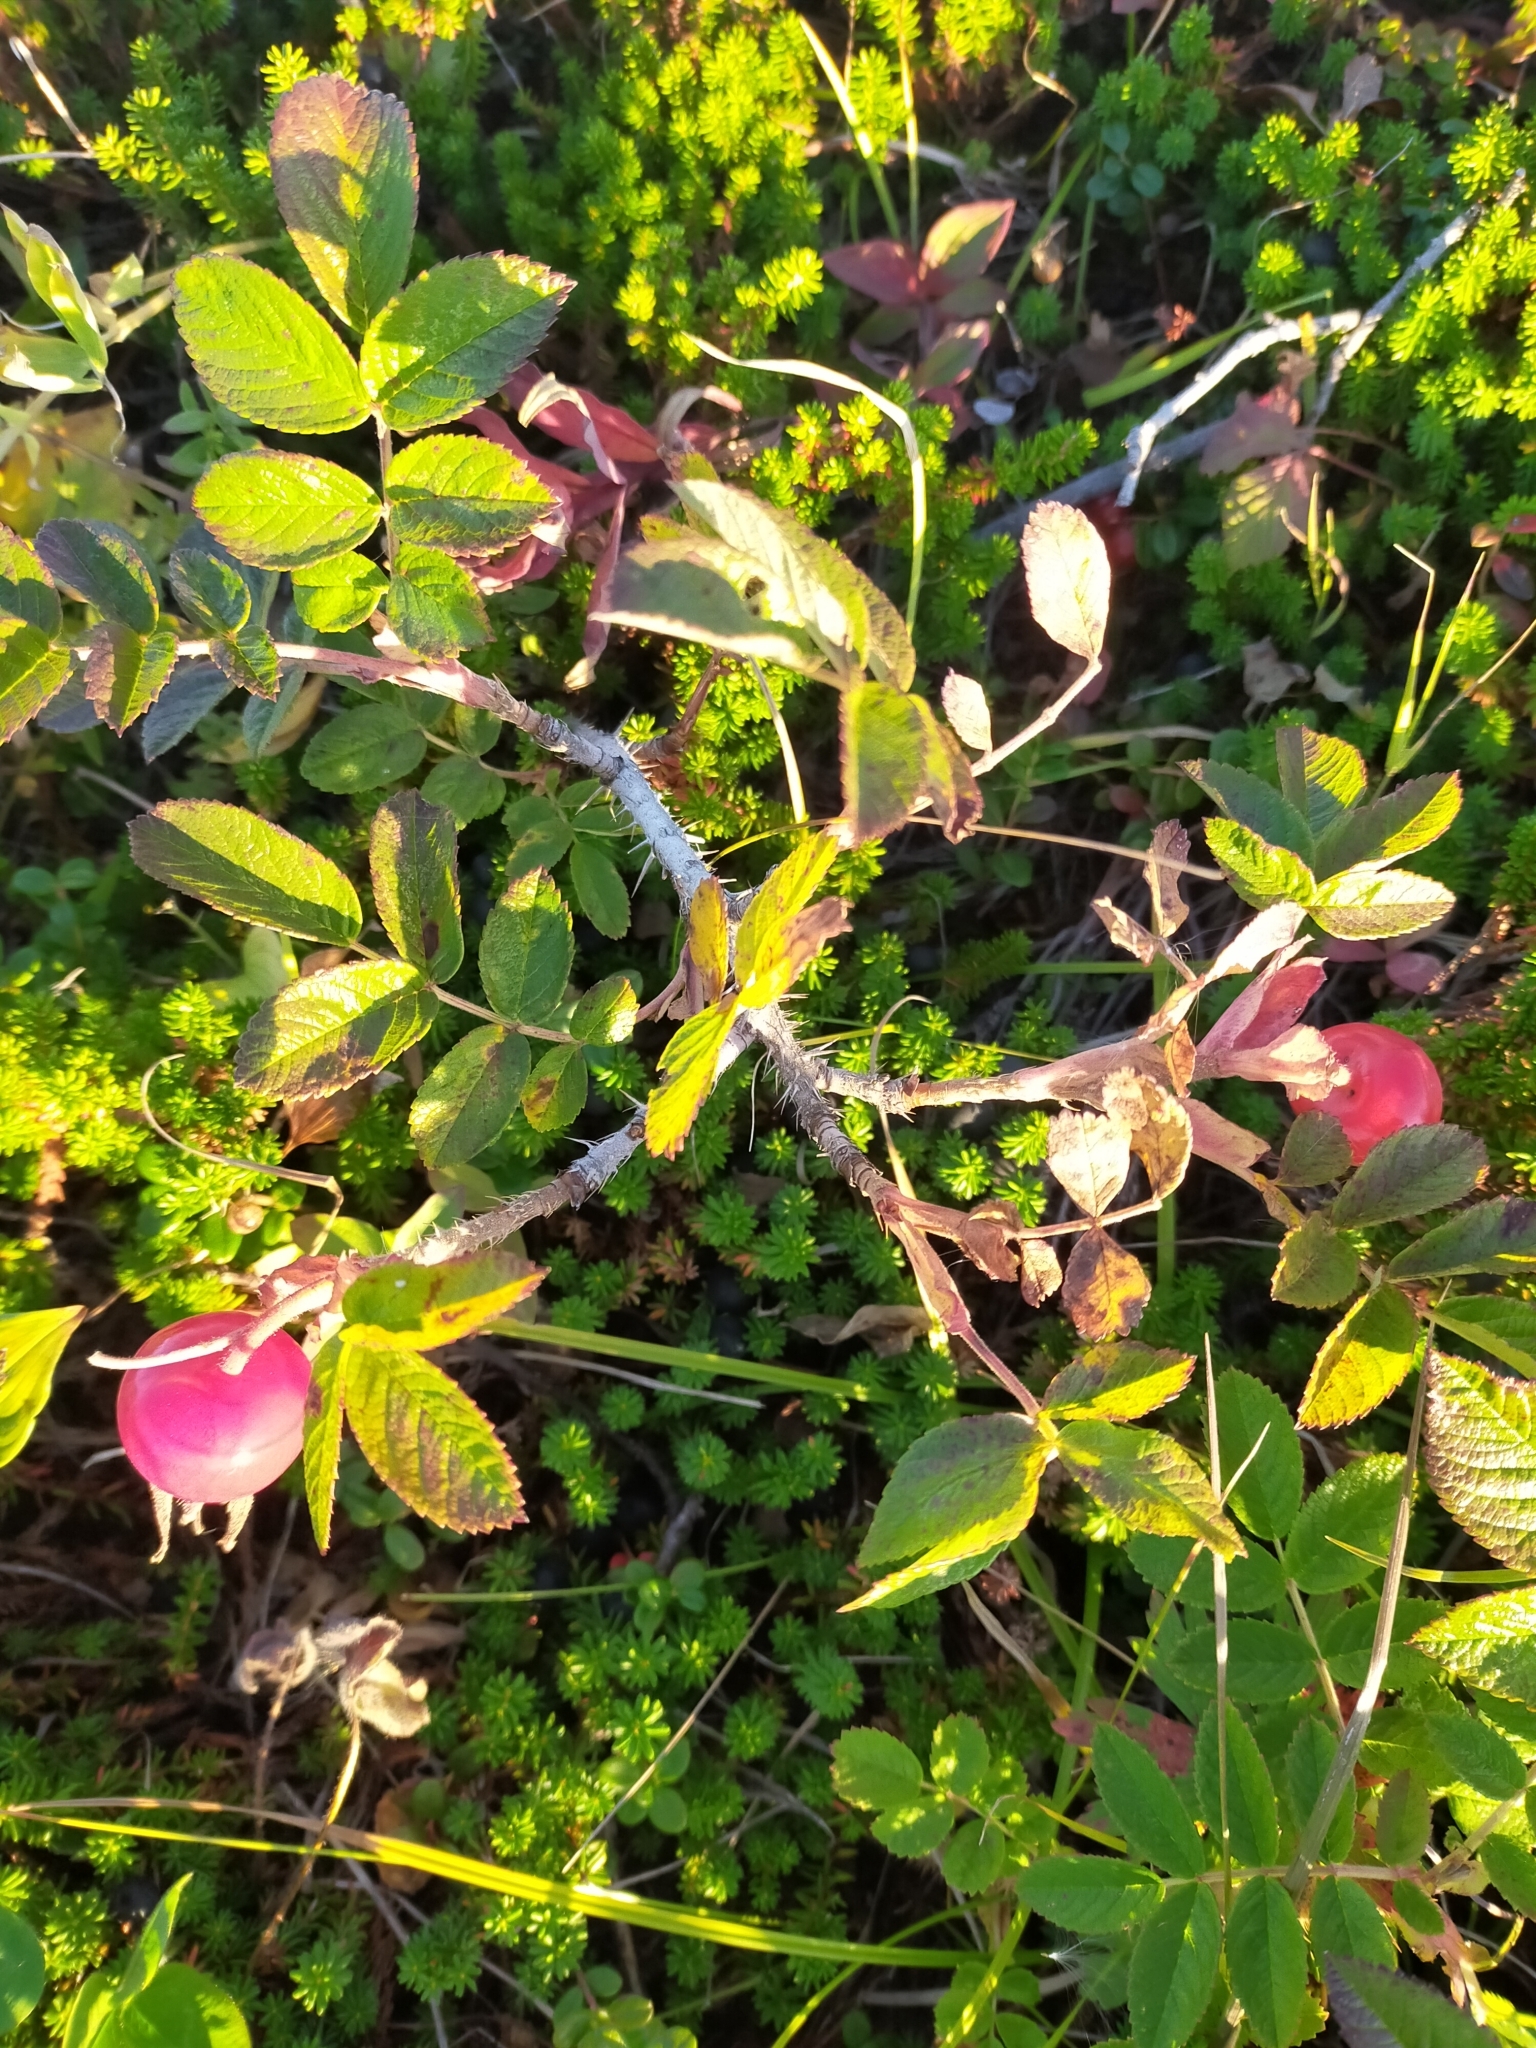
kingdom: Plantae
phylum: Tracheophyta
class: Magnoliopsida
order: Rosales
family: Rosaceae
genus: Rosa
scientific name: Rosa rugosa
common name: Japanese rose
